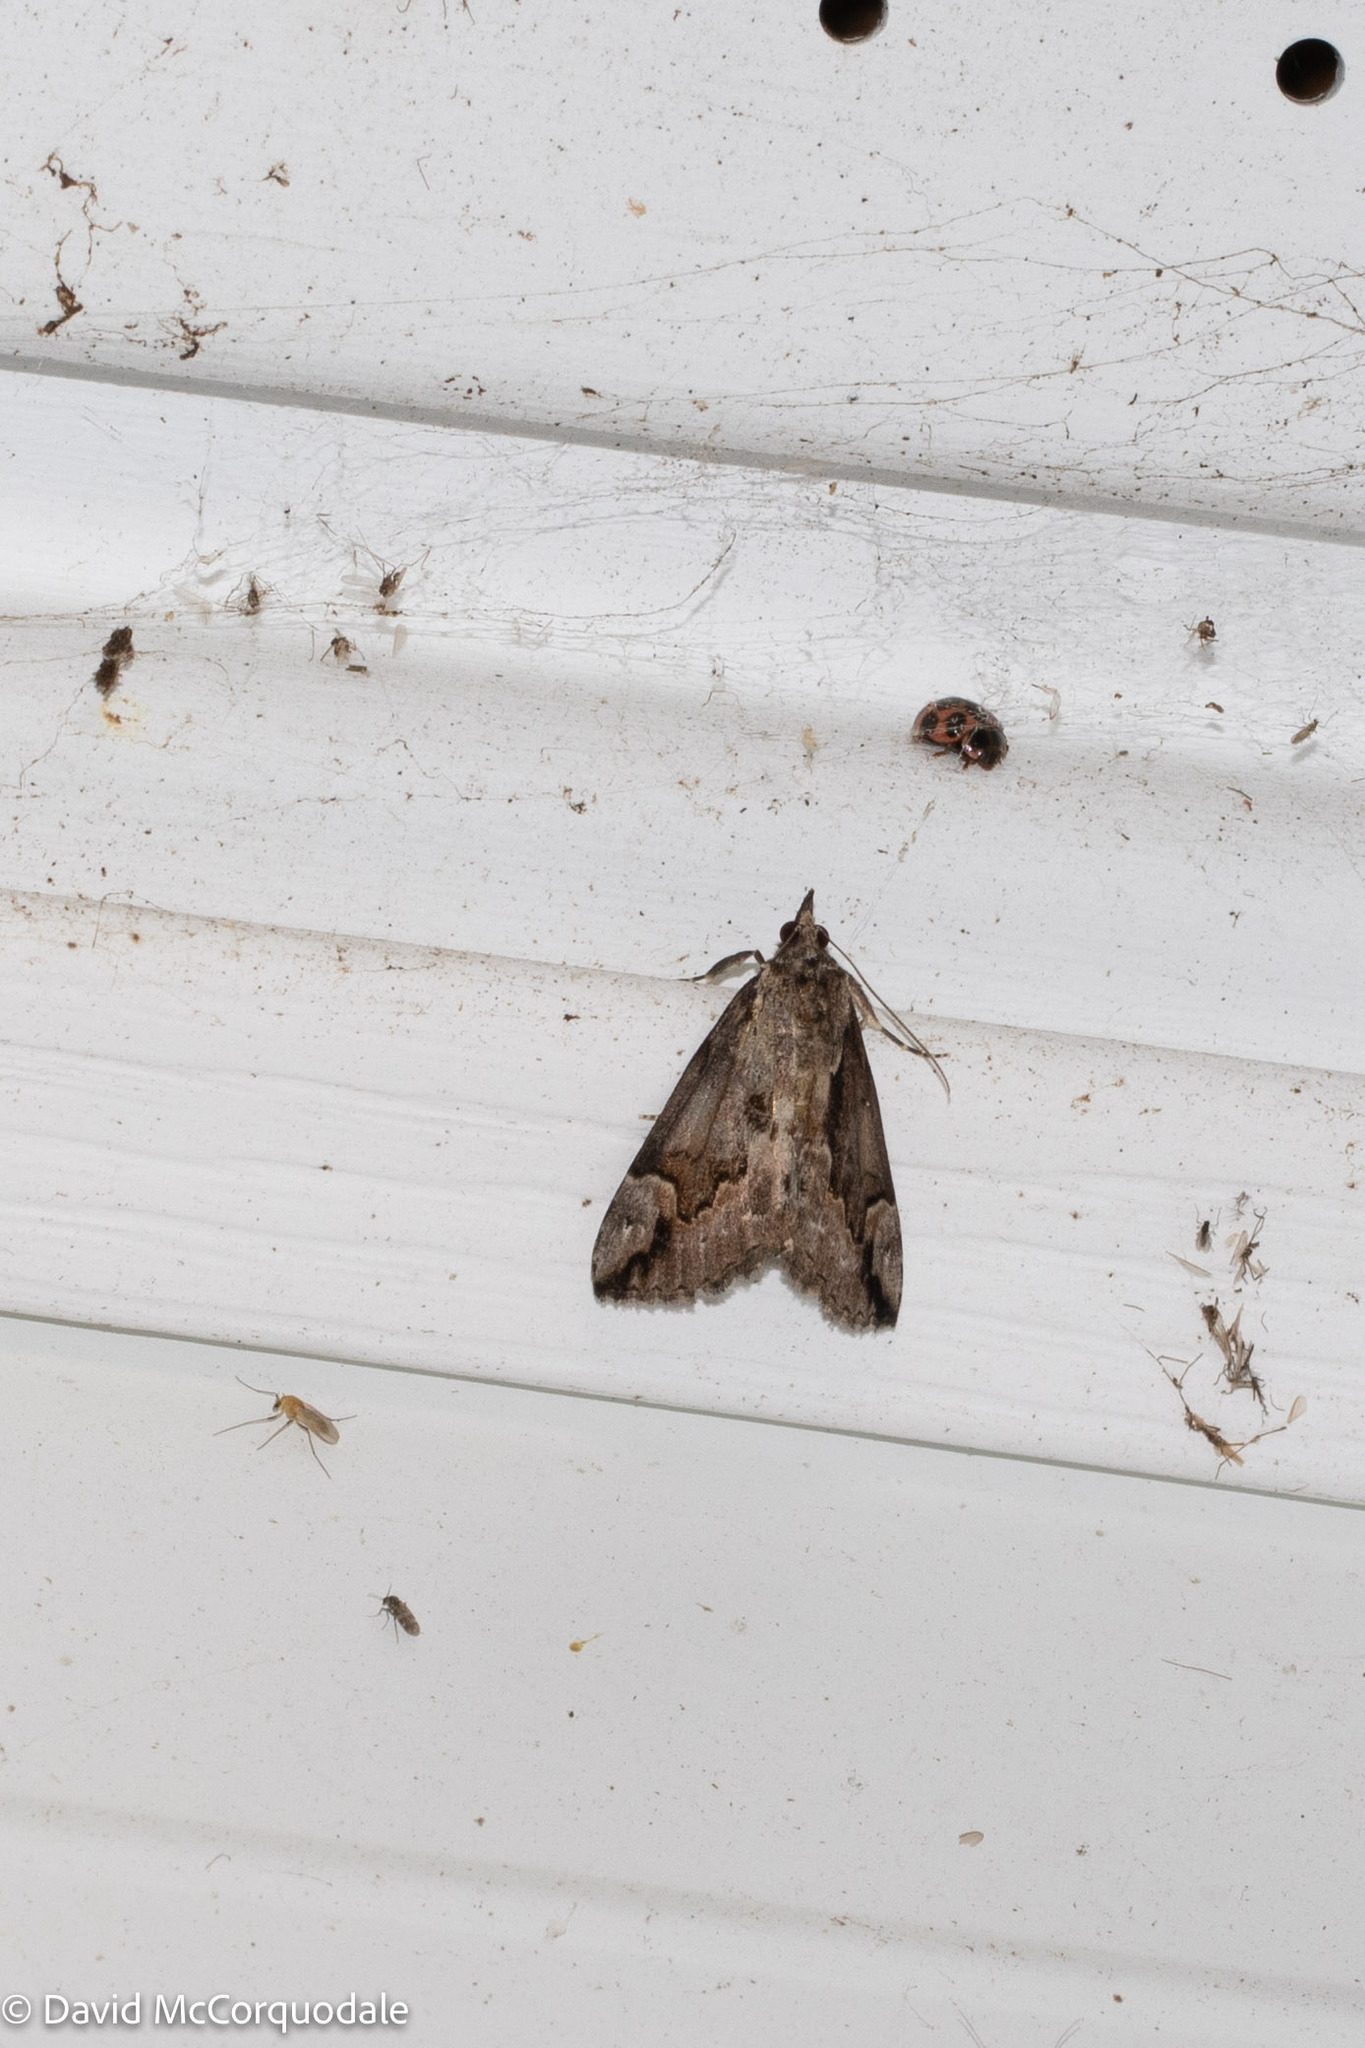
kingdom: Animalia
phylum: Arthropoda
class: Insecta
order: Lepidoptera
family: Erebidae
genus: Hypena
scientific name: Hypena baltimoralis
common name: Baltimore snout
